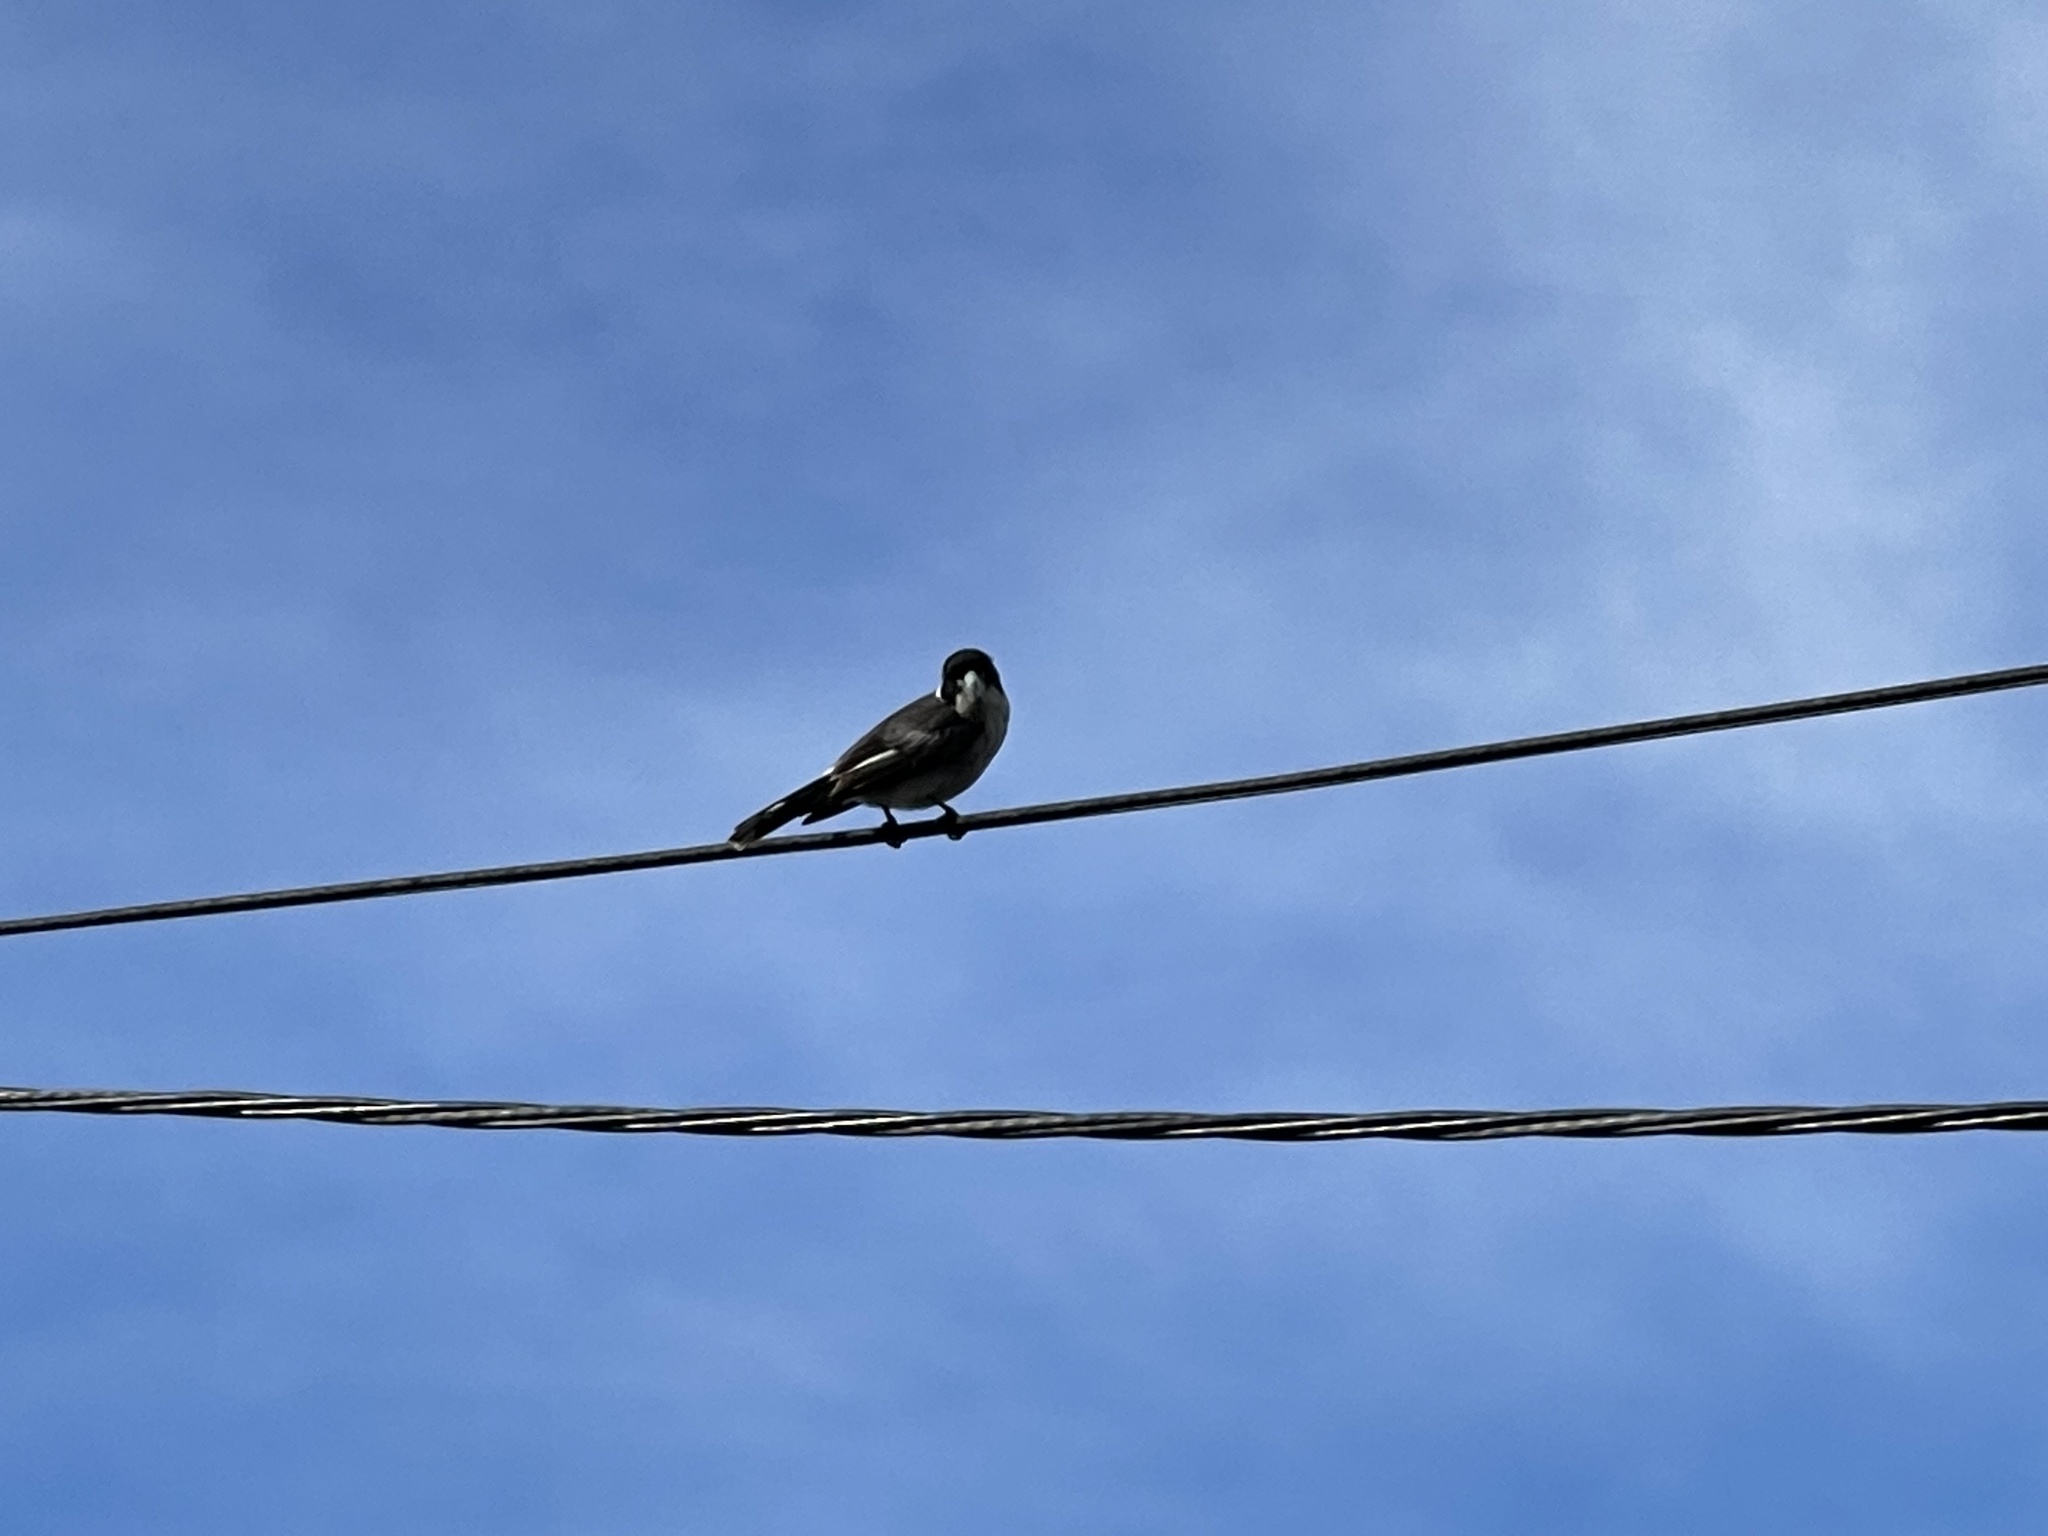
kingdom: Animalia
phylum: Chordata
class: Aves
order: Passeriformes
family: Cracticidae
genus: Cracticus
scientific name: Cracticus torquatus
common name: Grey butcherbird
